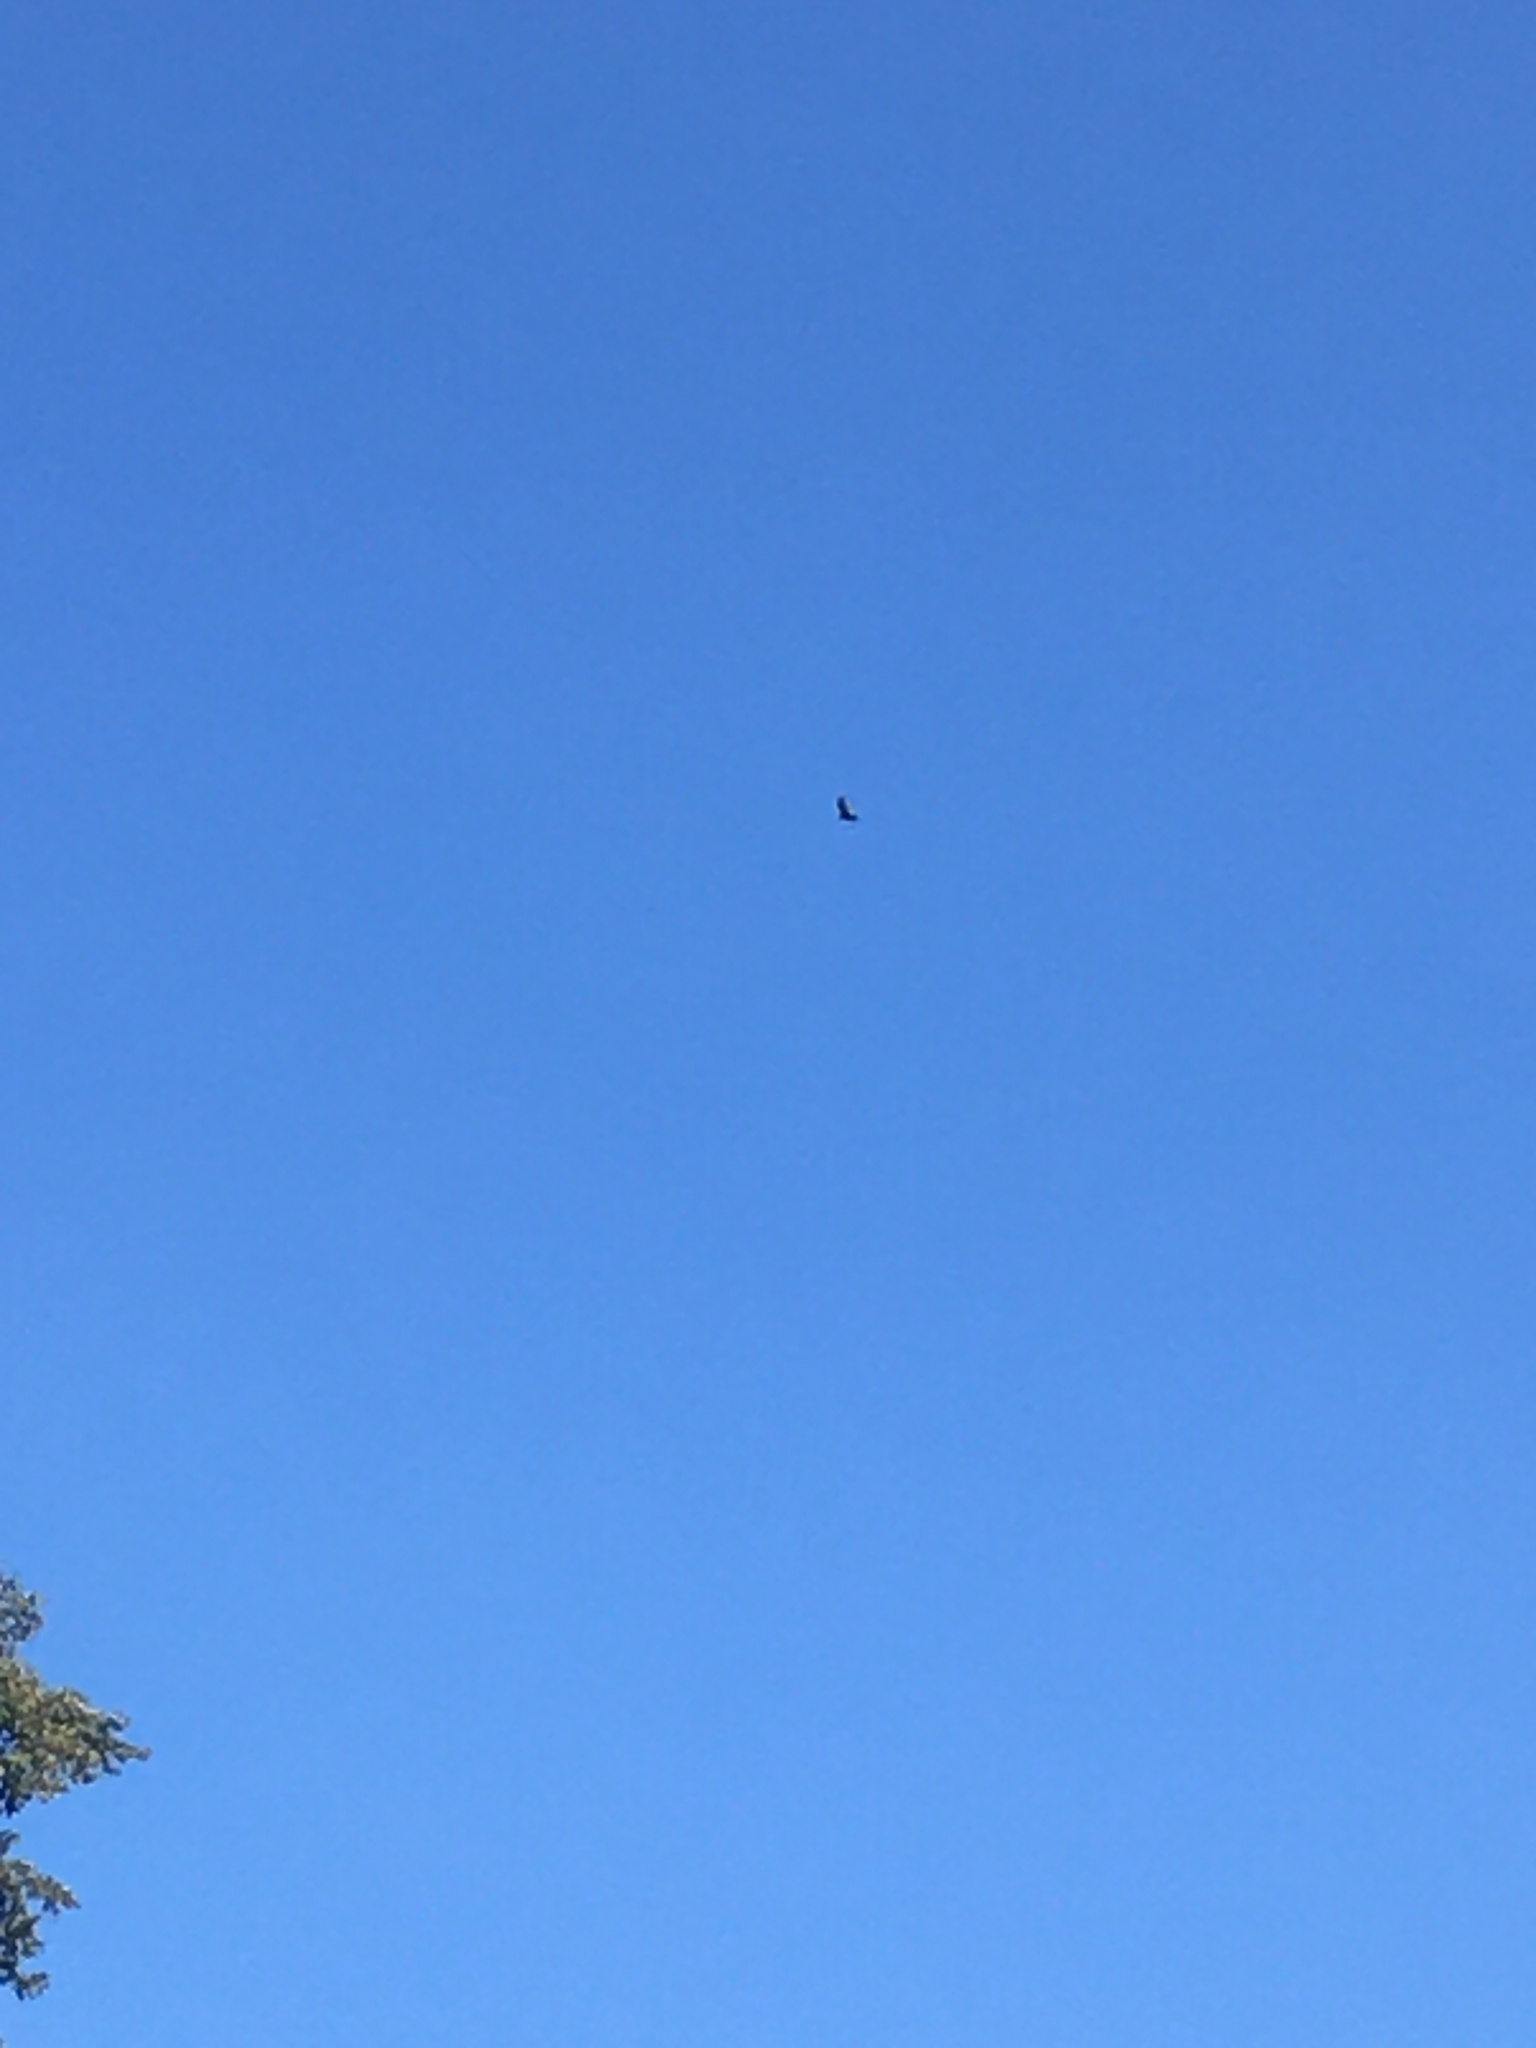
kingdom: Animalia
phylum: Chordata
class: Aves
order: Accipitriformes
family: Cathartidae
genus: Cathartes
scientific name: Cathartes aura
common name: Turkey vulture
